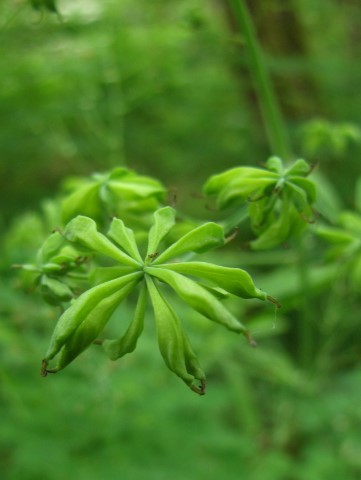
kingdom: Plantae
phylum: Tracheophyta
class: Magnoliopsida
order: Ranunculales
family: Ranunculaceae
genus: Thalictrum
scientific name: Thalictrum fendleri
